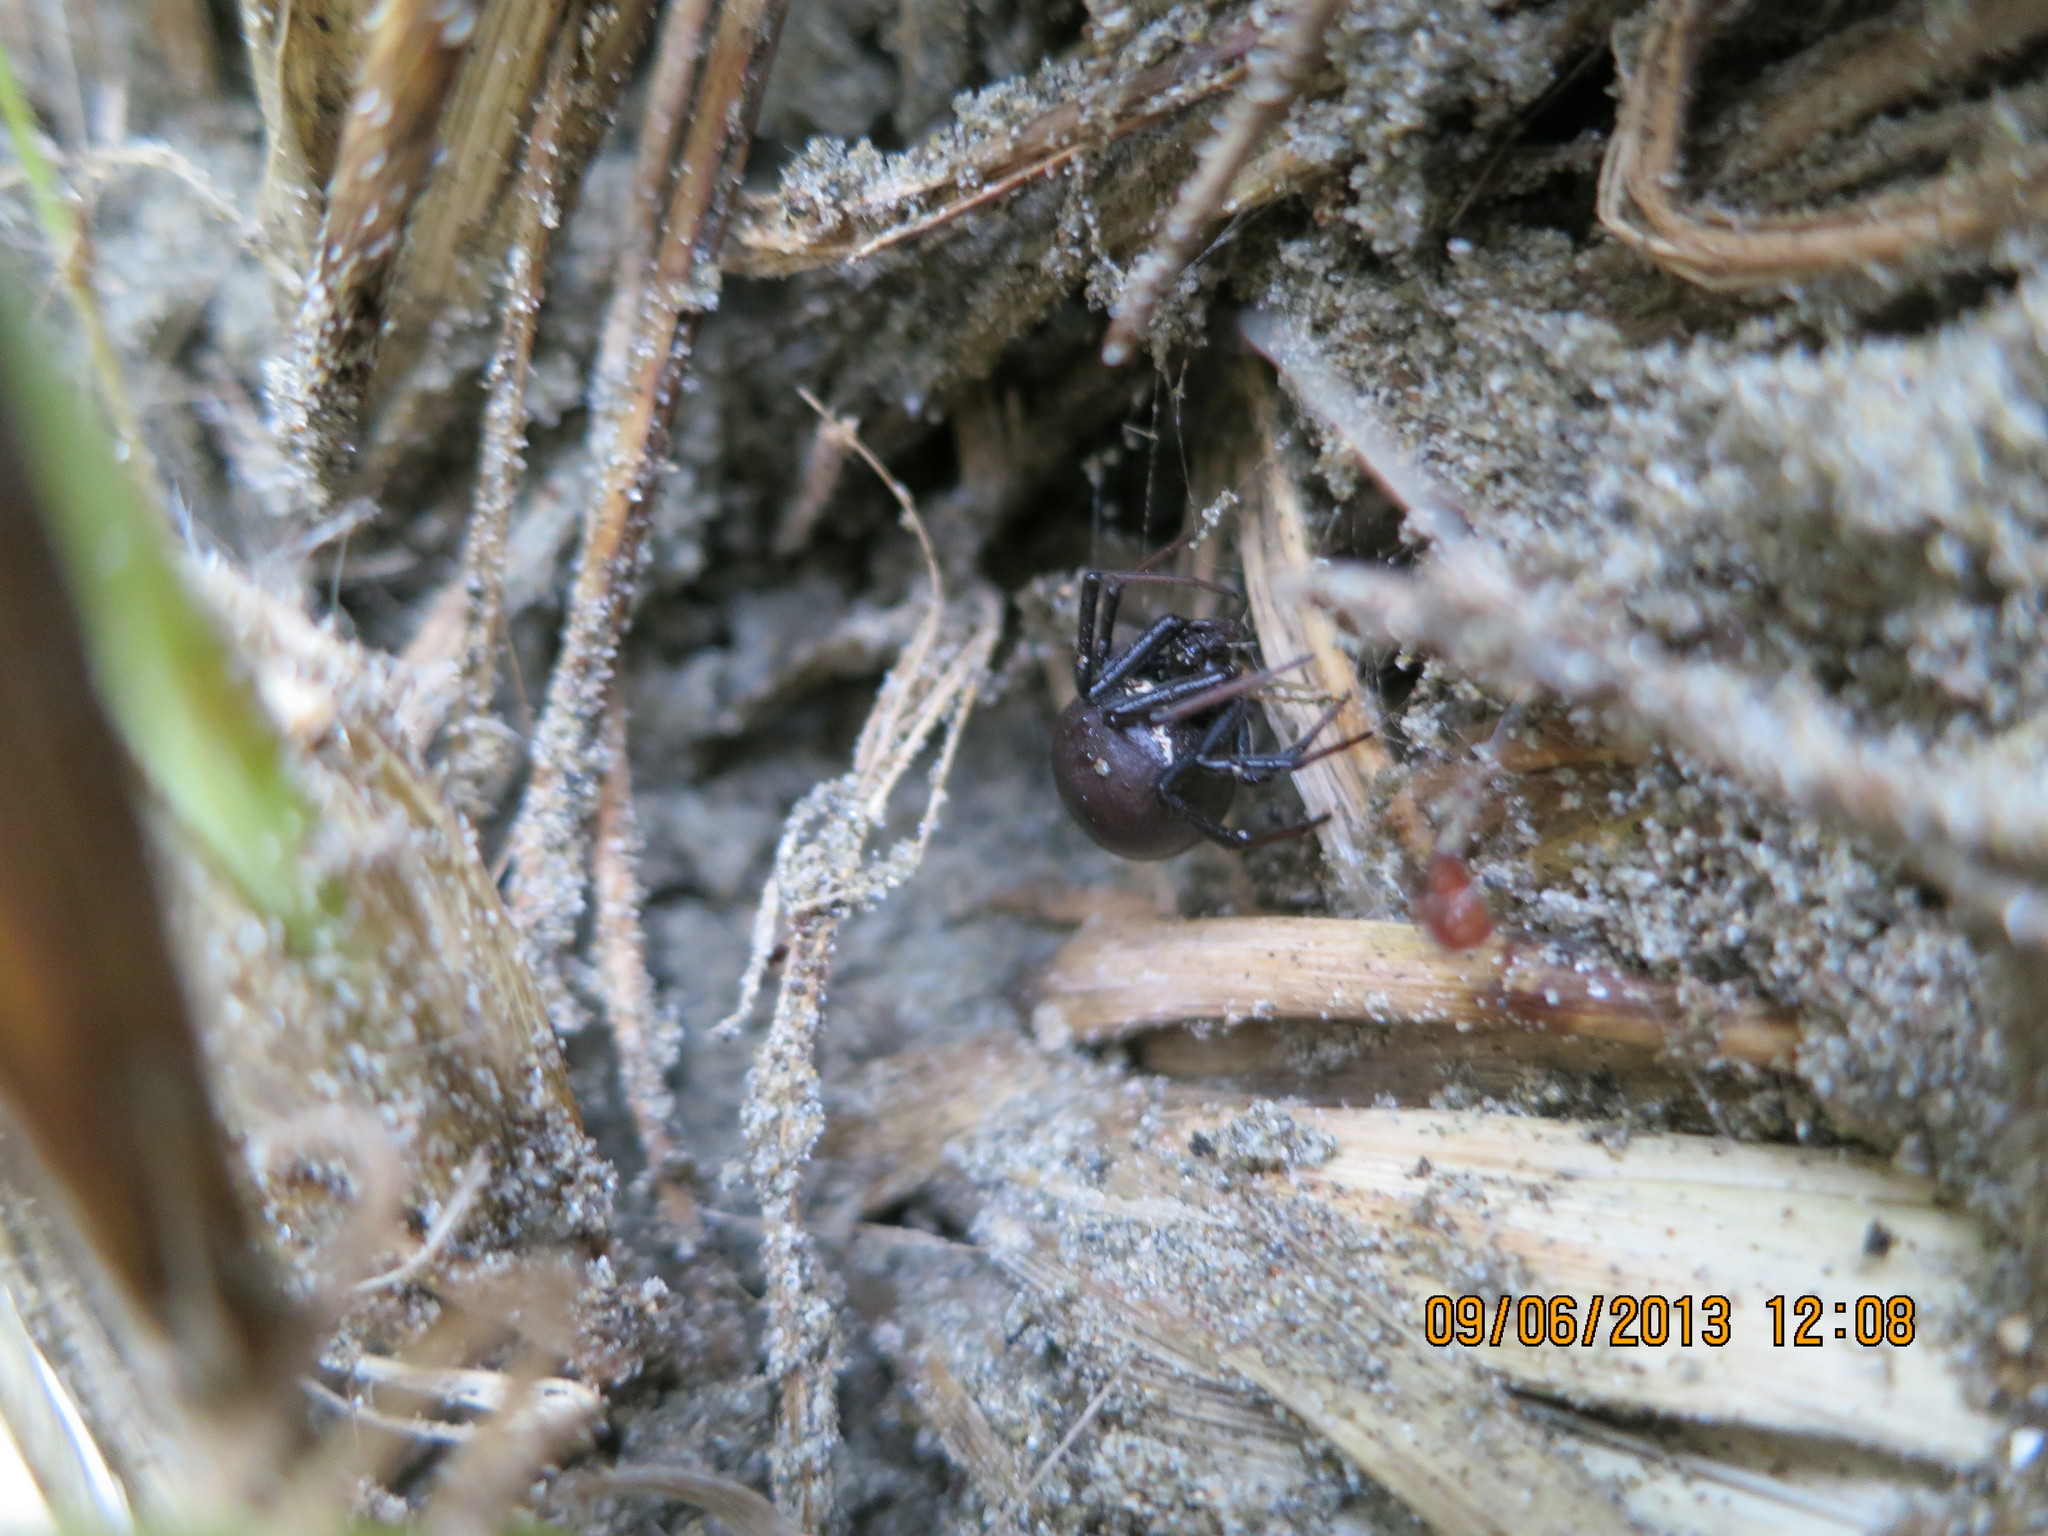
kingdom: Animalia
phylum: Arthropoda
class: Arachnida
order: Araneae
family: Theridiidae
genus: Latrodectus
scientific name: Latrodectus katipo
